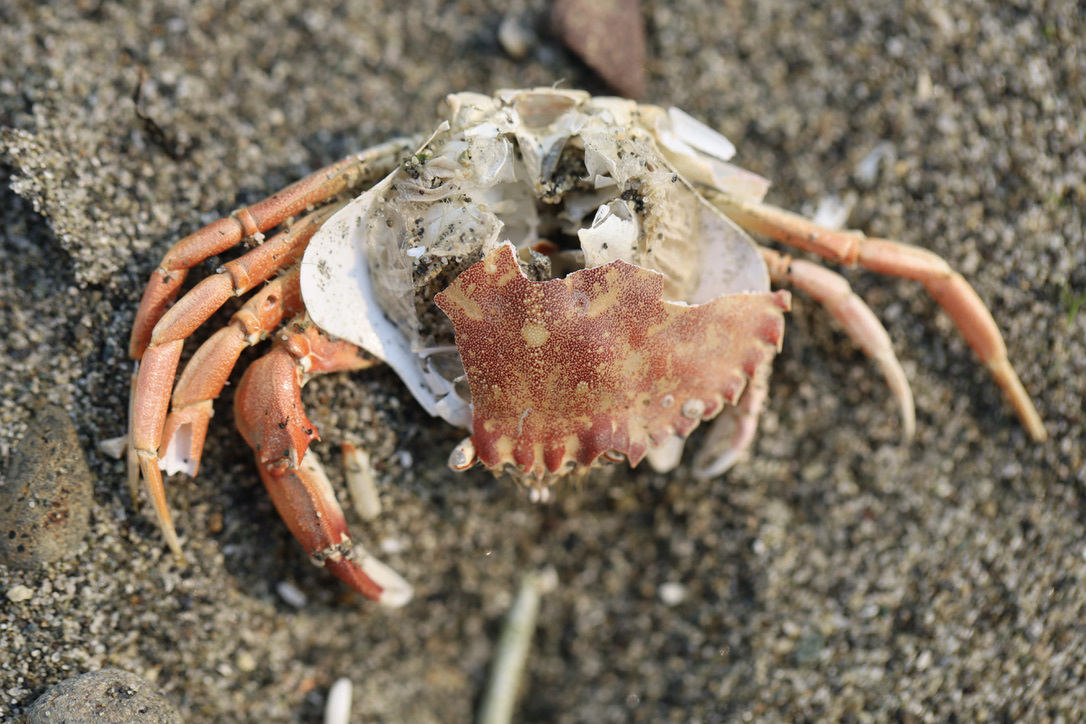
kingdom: Animalia
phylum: Arthropoda
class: Malacostraca
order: Decapoda
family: Cancridae
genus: Metacarcinus
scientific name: Metacarcinus gracilis
